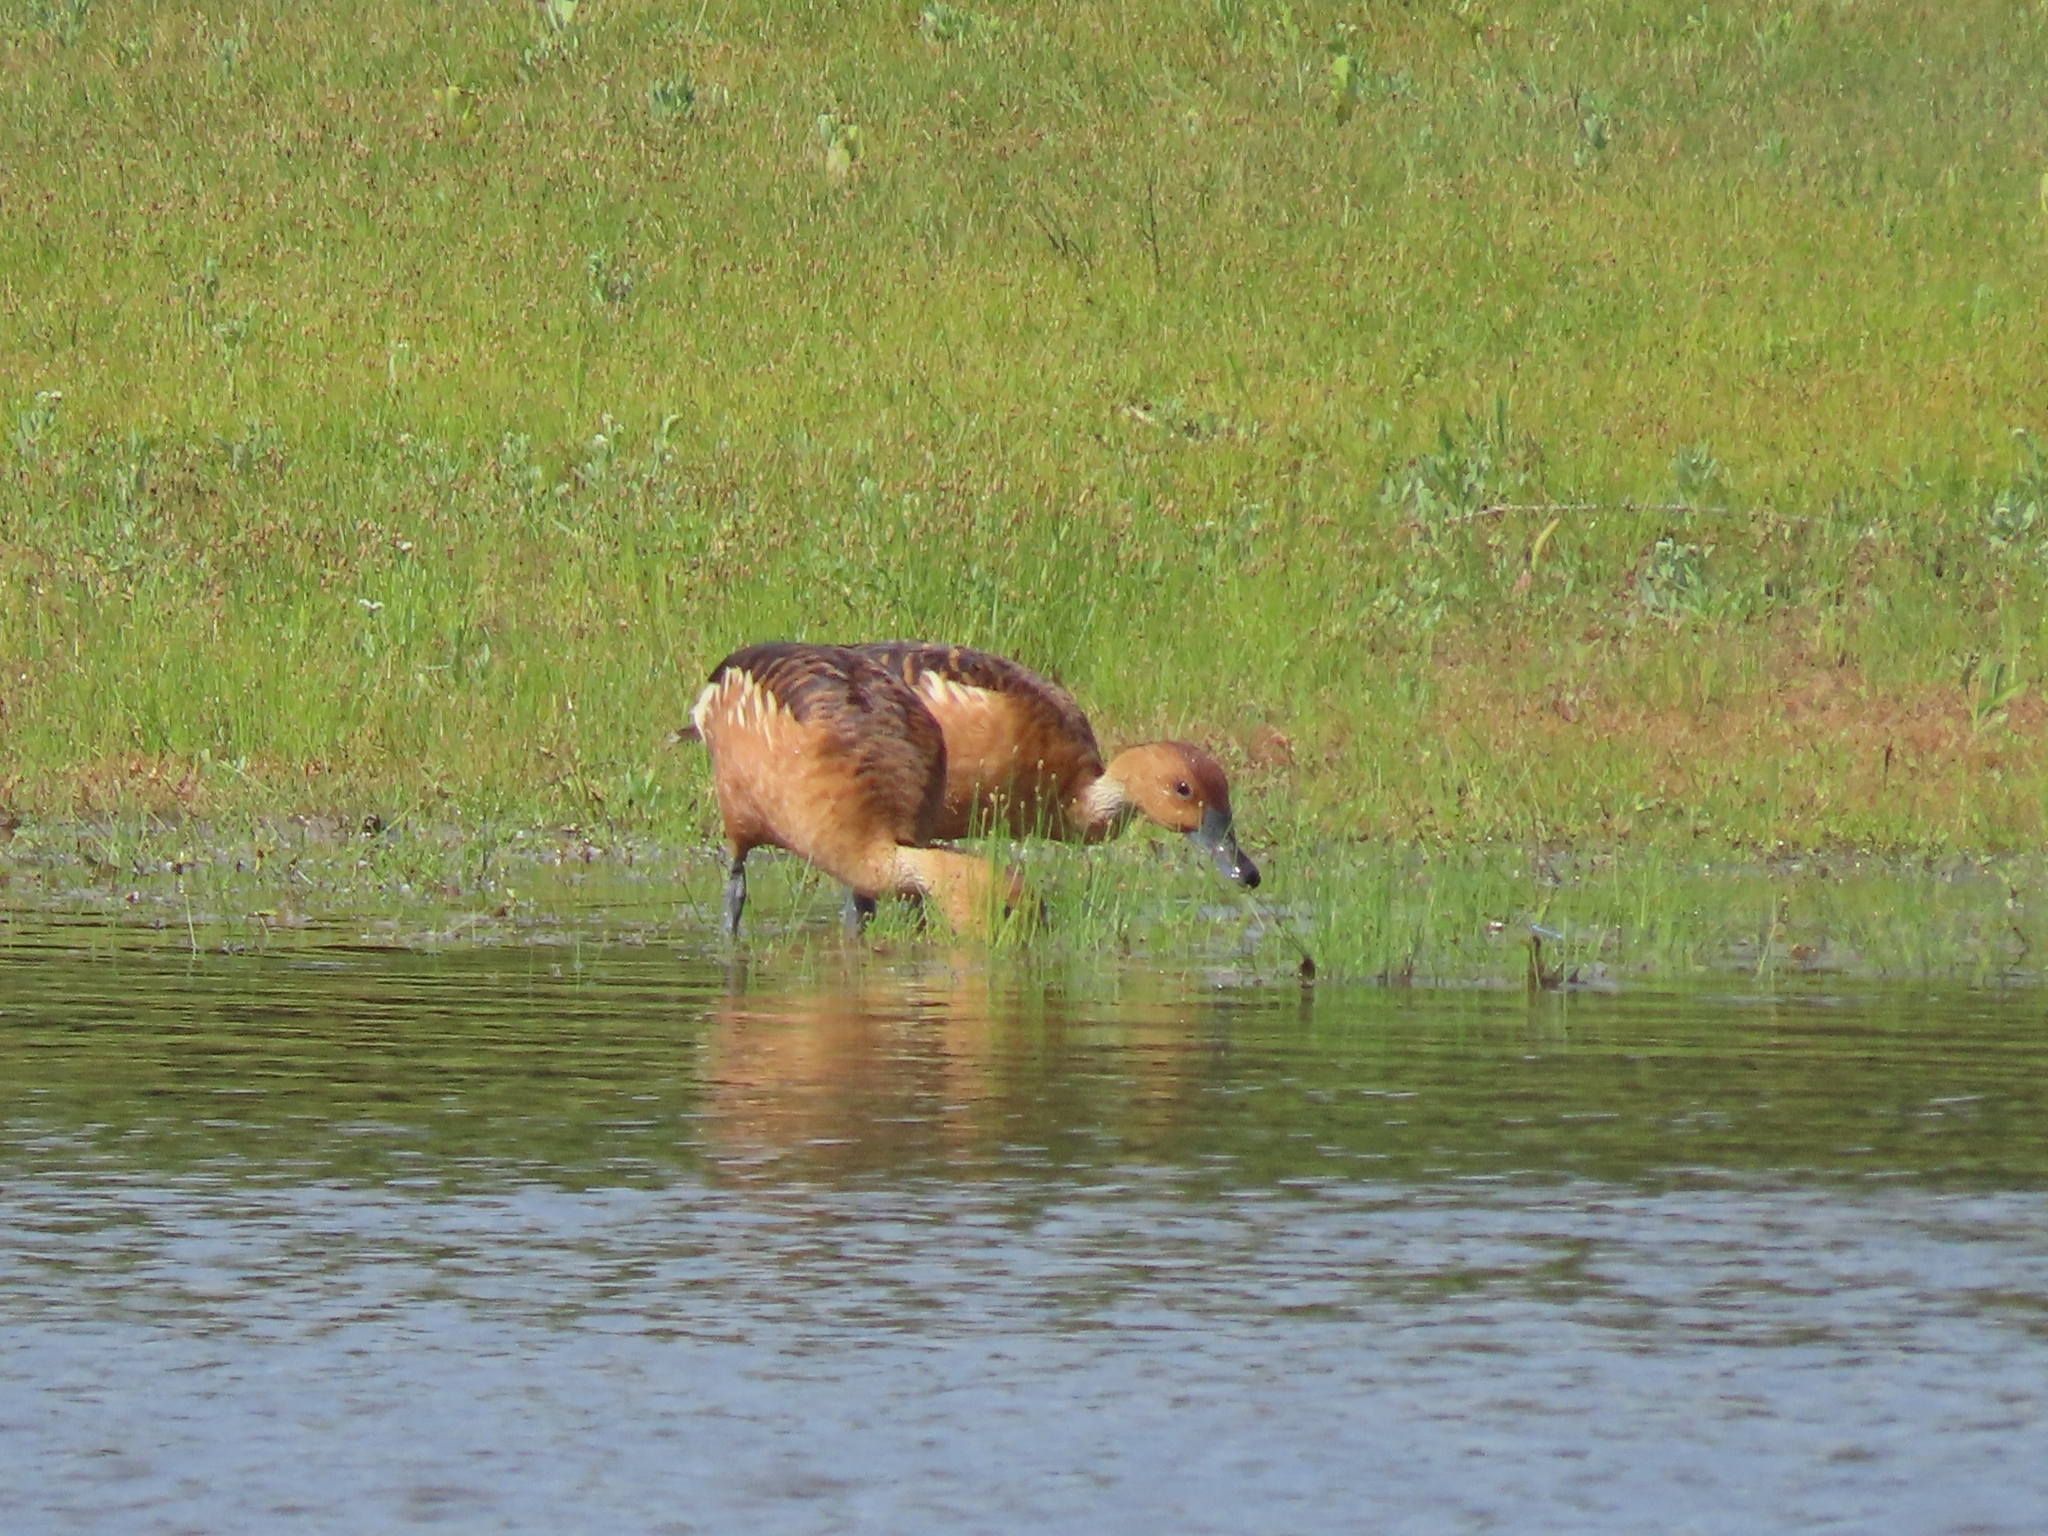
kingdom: Animalia
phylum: Chordata
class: Aves
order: Anseriformes
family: Anatidae
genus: Dendrocygna
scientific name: Dendrocygna bicolor
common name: Fulvous whistling duck
